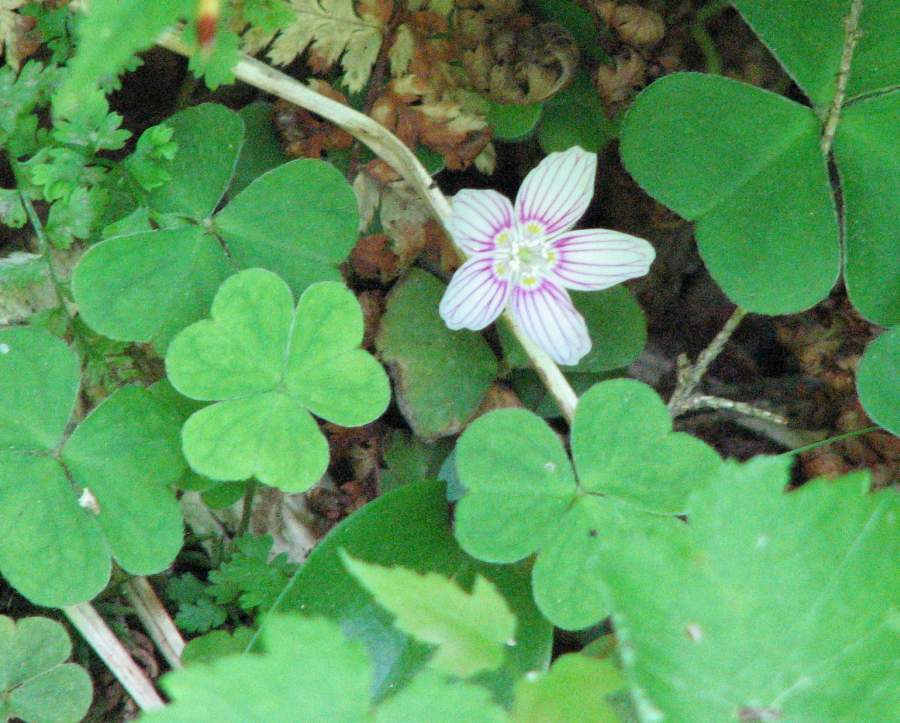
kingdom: Plantae
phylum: Tracheophyta
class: Magnoliopsida
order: Oxalidales
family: Oxalidaceae
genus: Oxalis
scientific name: Oxalis montana
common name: American wood-sorrel
